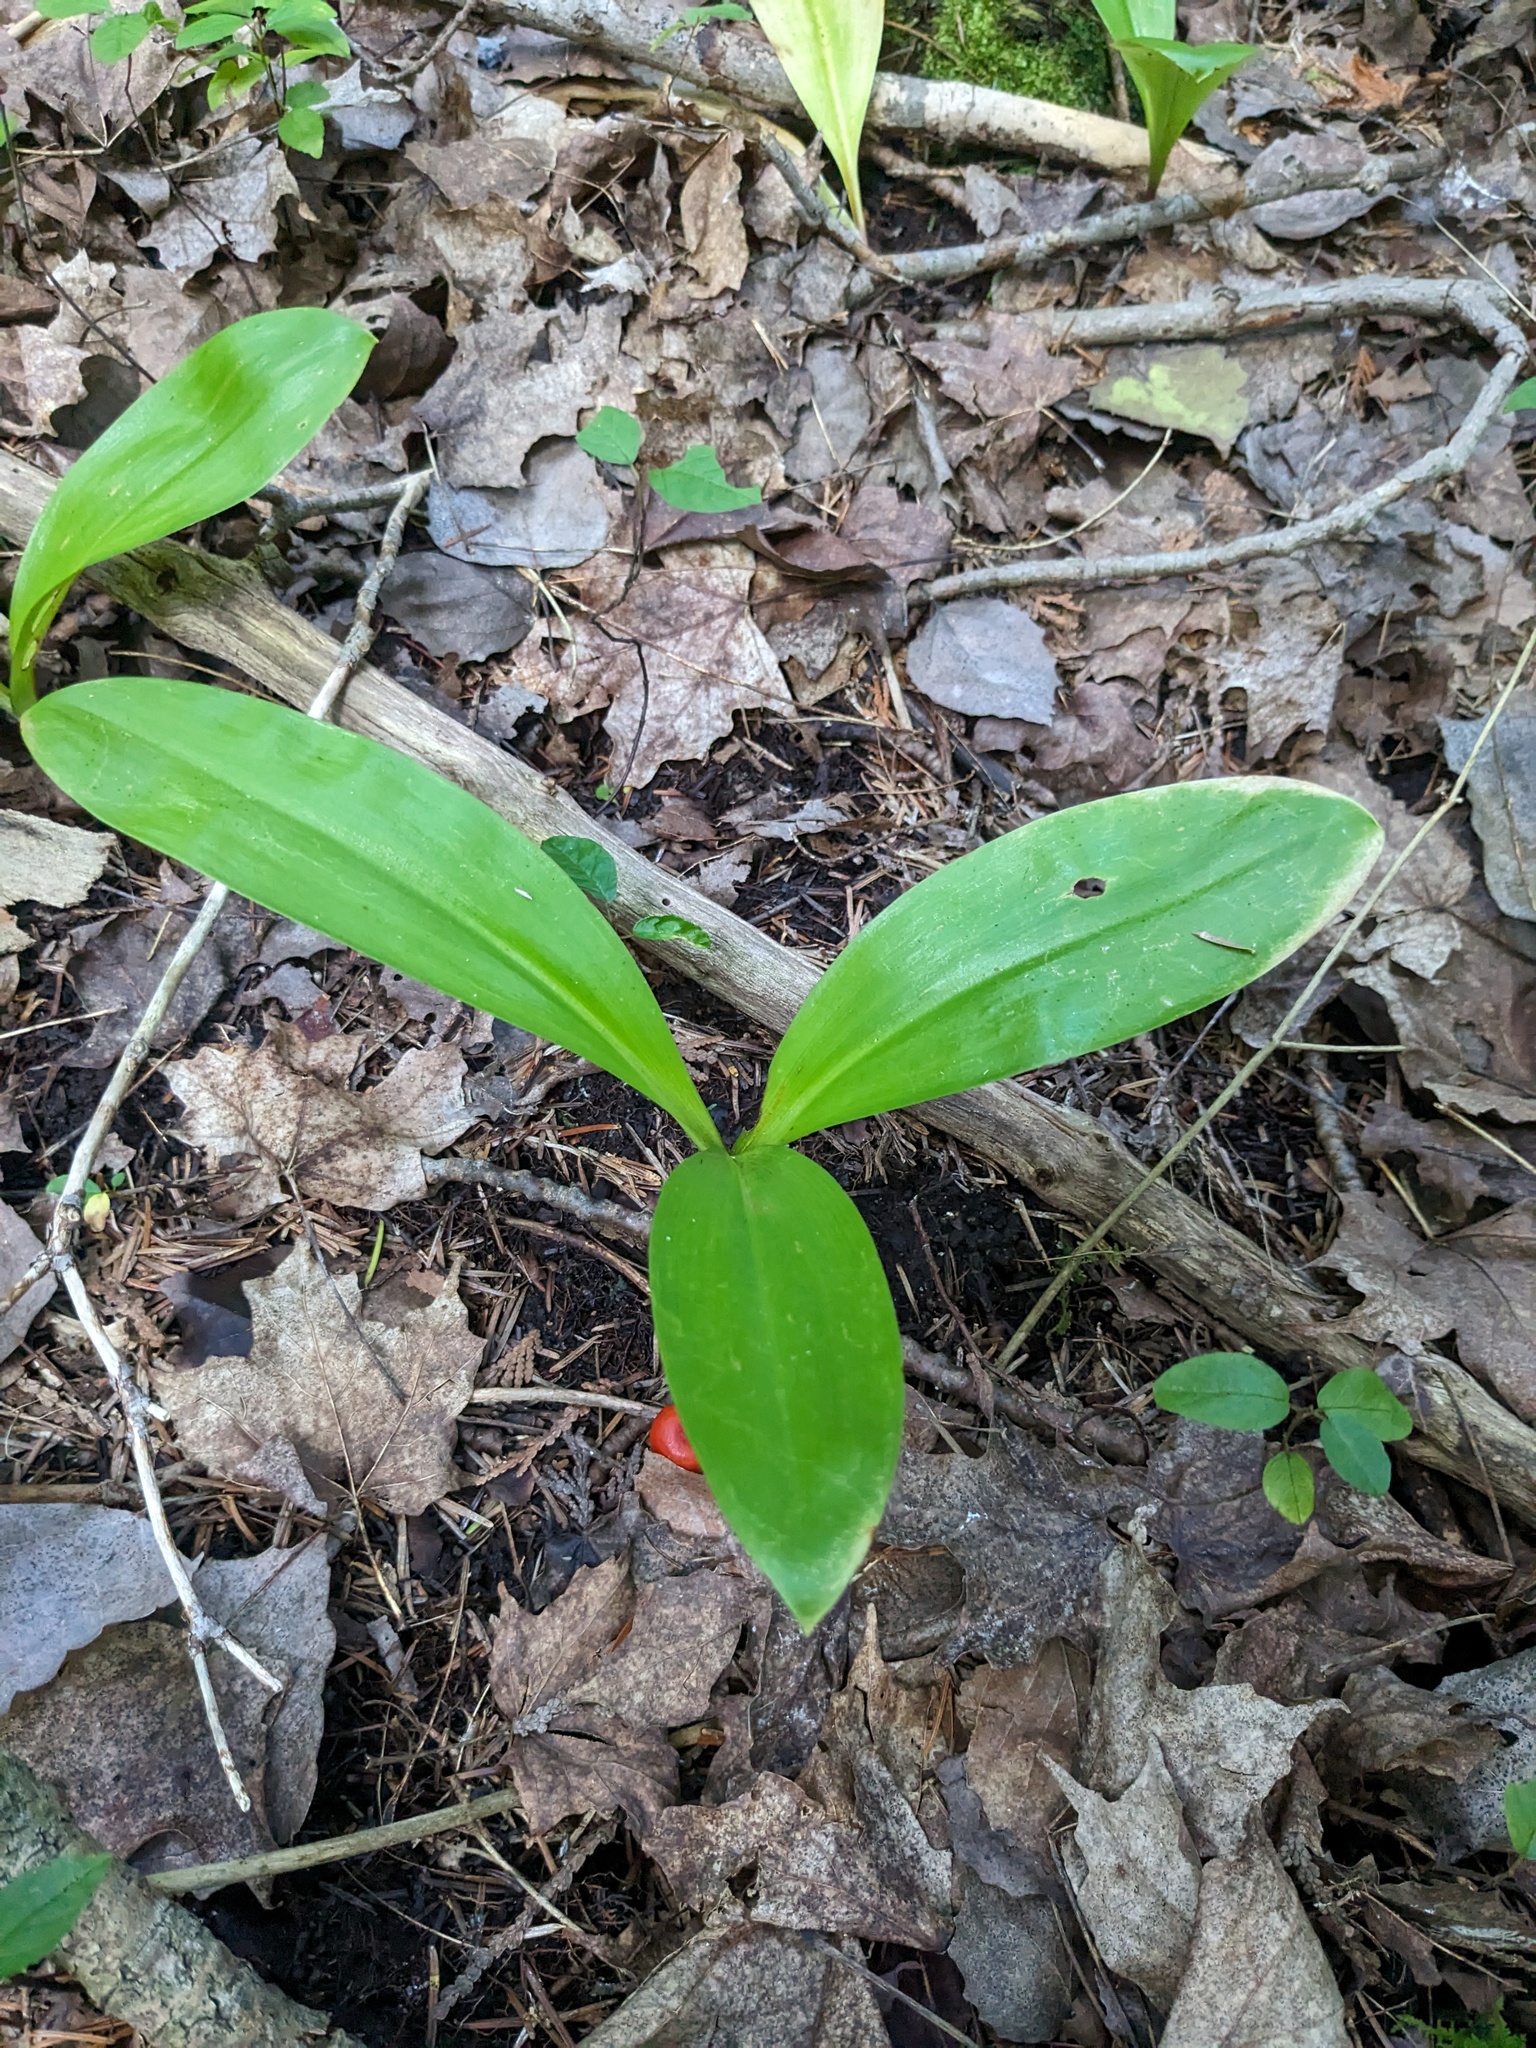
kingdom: Plantae
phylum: Tracheophyta
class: Liliopsida
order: Liliales
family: Liliaceae
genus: Clintonia
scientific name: Clintonia borealis
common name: Yellow clintonia
